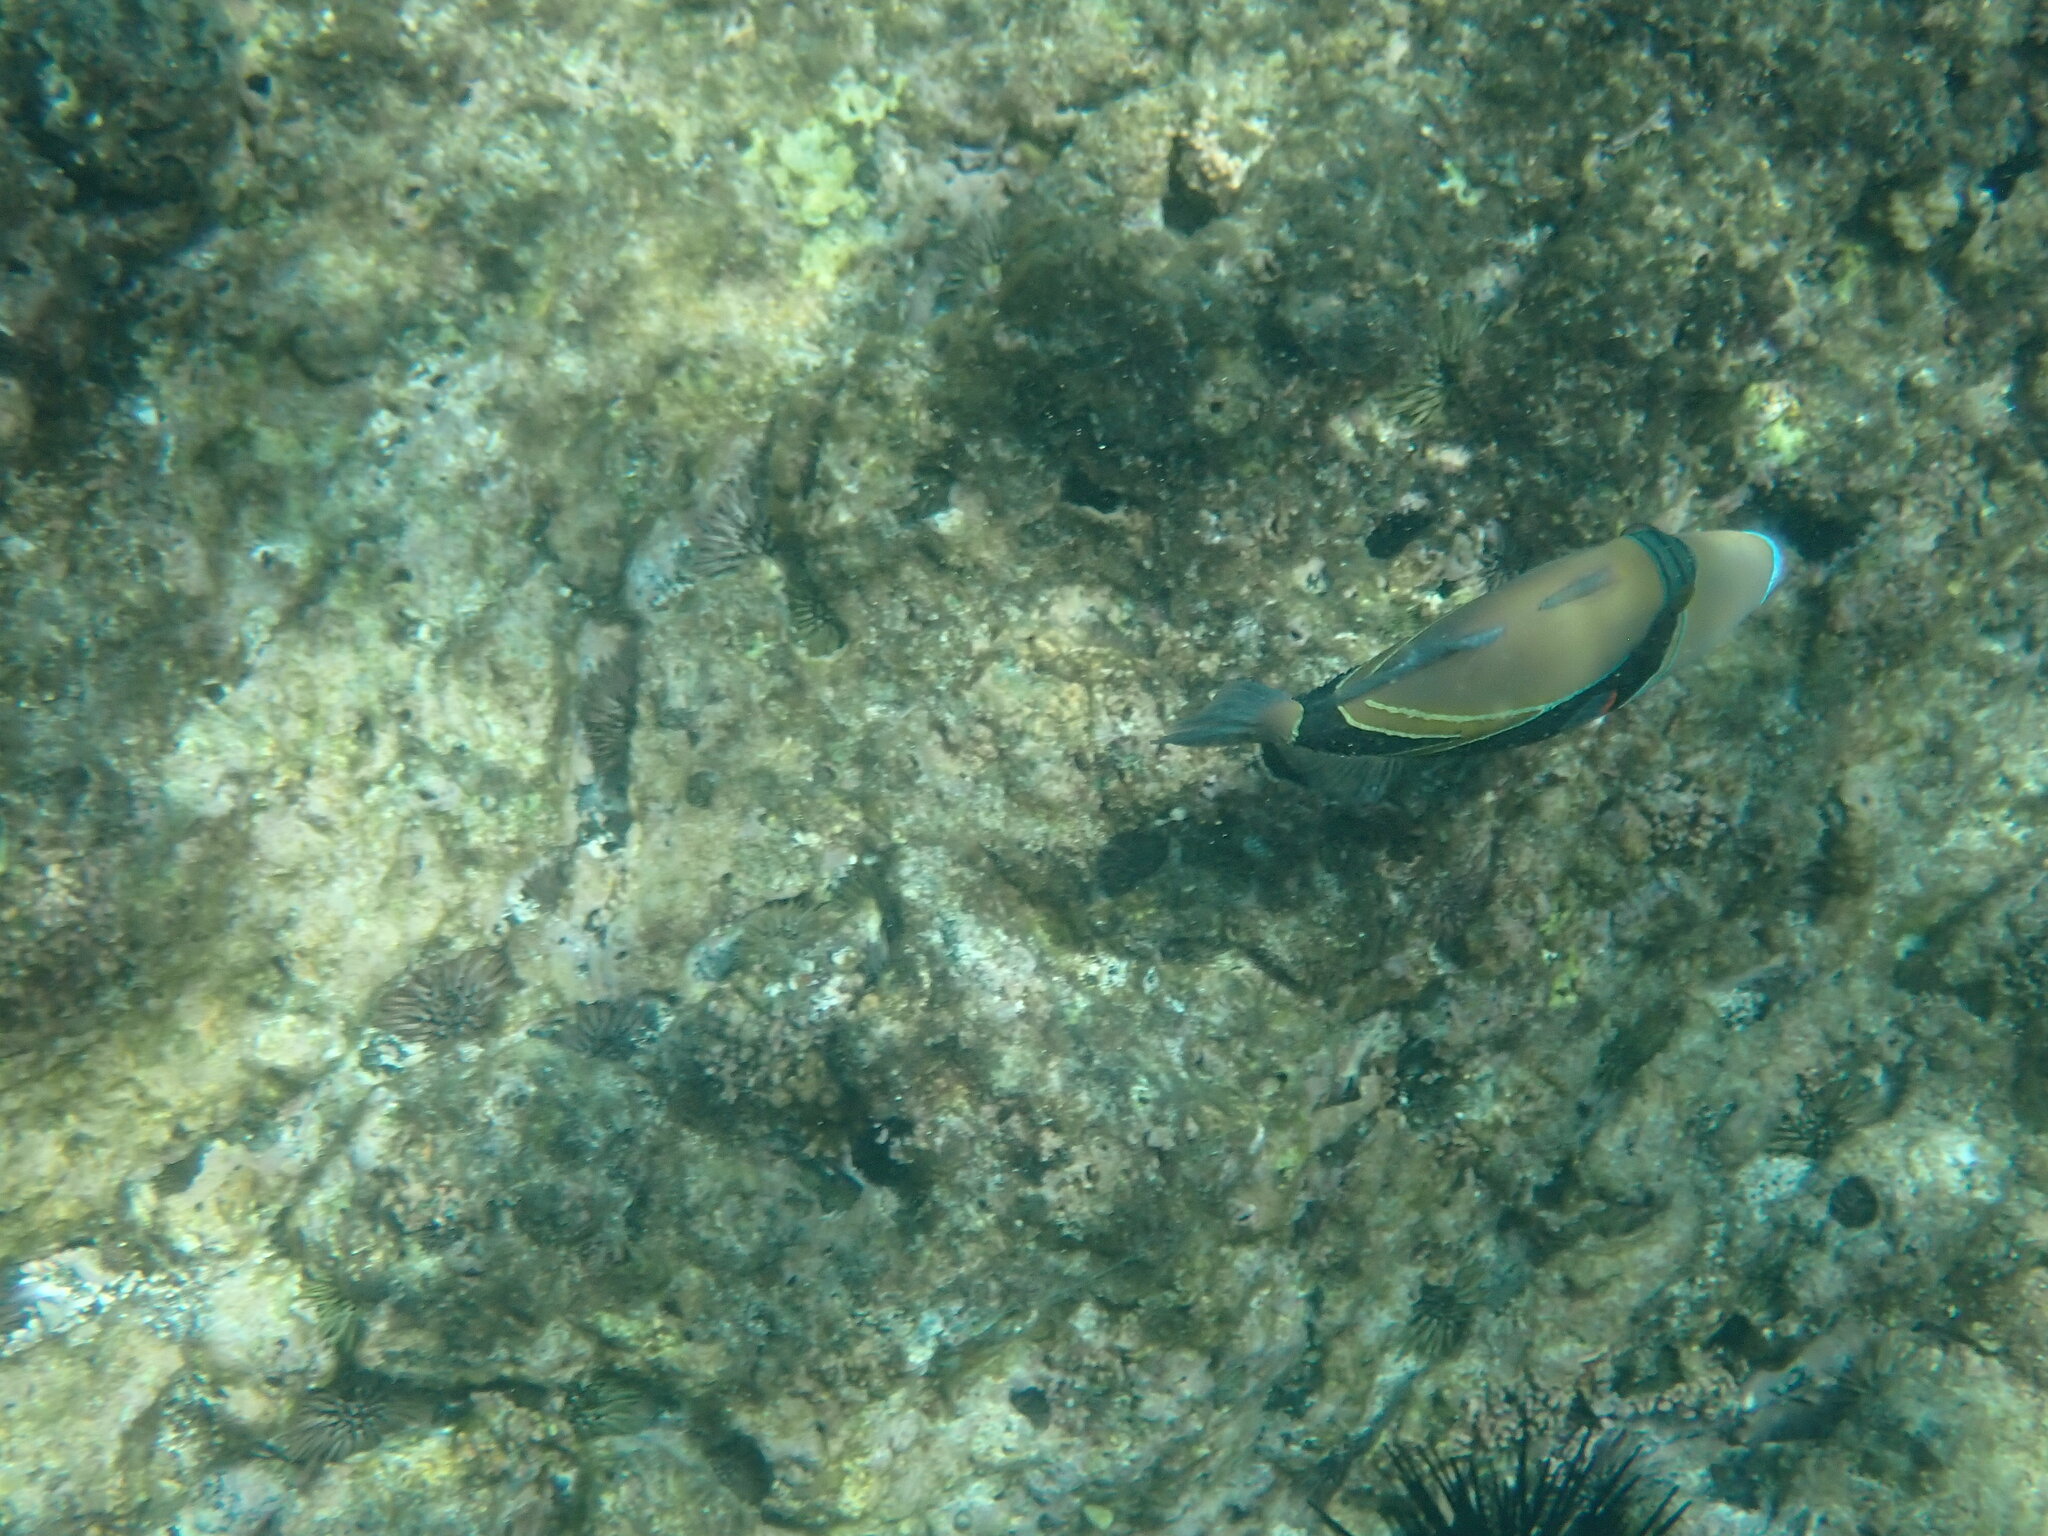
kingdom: Animalia
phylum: Chordata
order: Tetraodontiformes
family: Balistidae
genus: Rhinecanthus
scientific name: Rhinecanthus rectangulus
